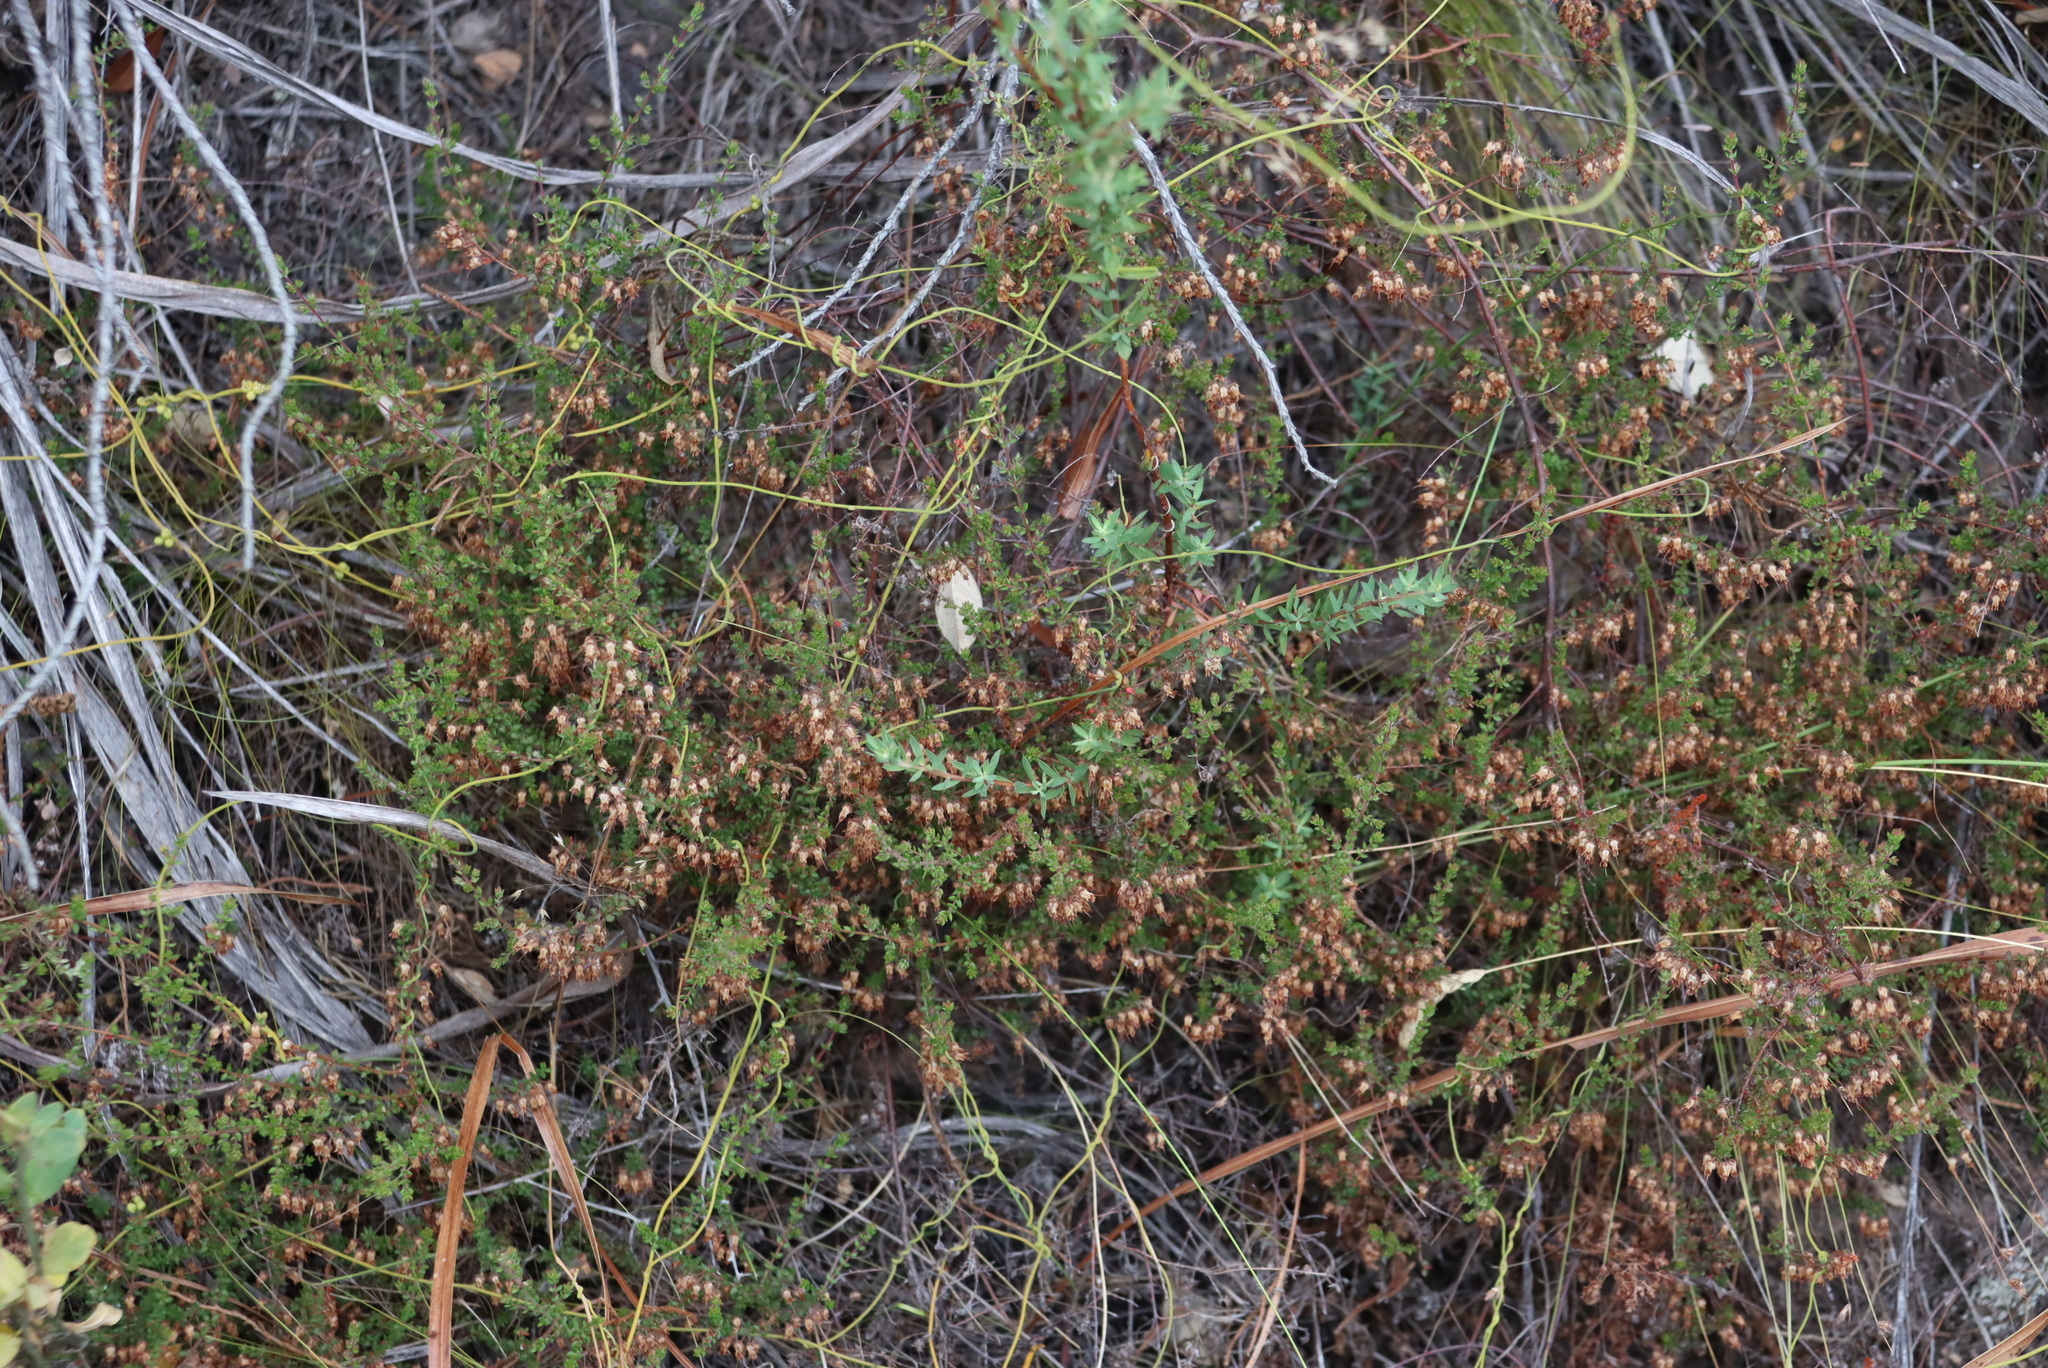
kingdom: Plantae
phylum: Tracheophyta
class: Magnoliopsida
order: Ericales
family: Ericaceae
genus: Erica
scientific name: Erica thimifolia
